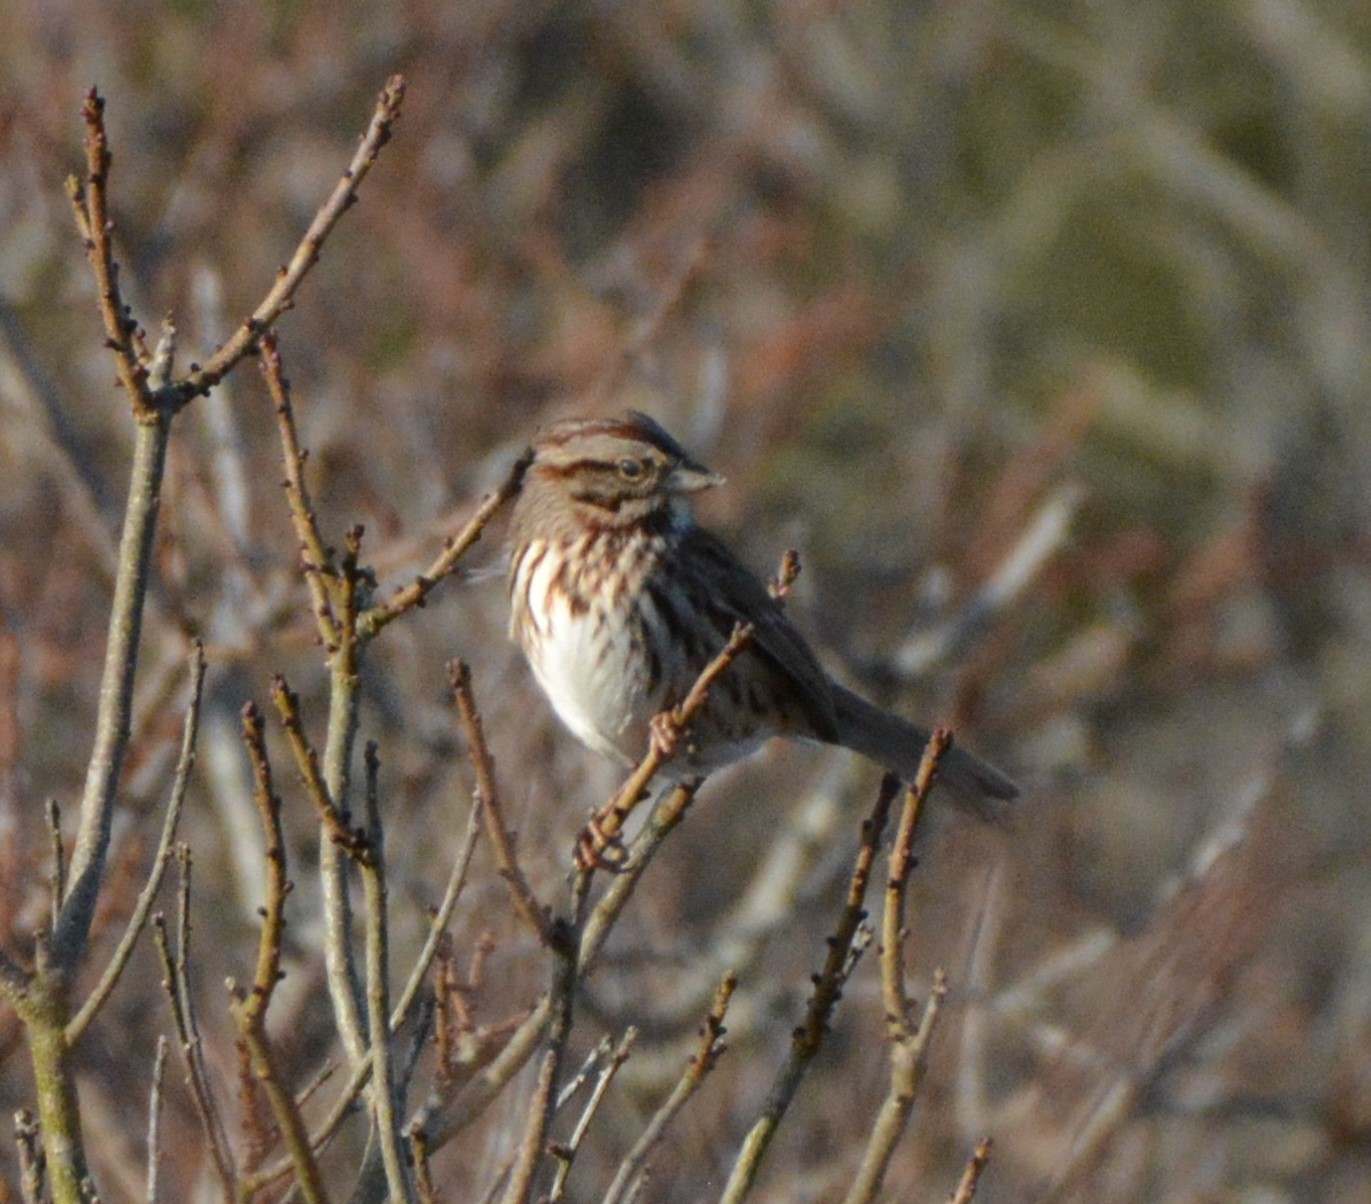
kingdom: Animalia
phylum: Chordata
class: Aves
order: Passeriformes
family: Passerellidae
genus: Melospiza
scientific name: Melospiza melodia
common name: Song sparrow
